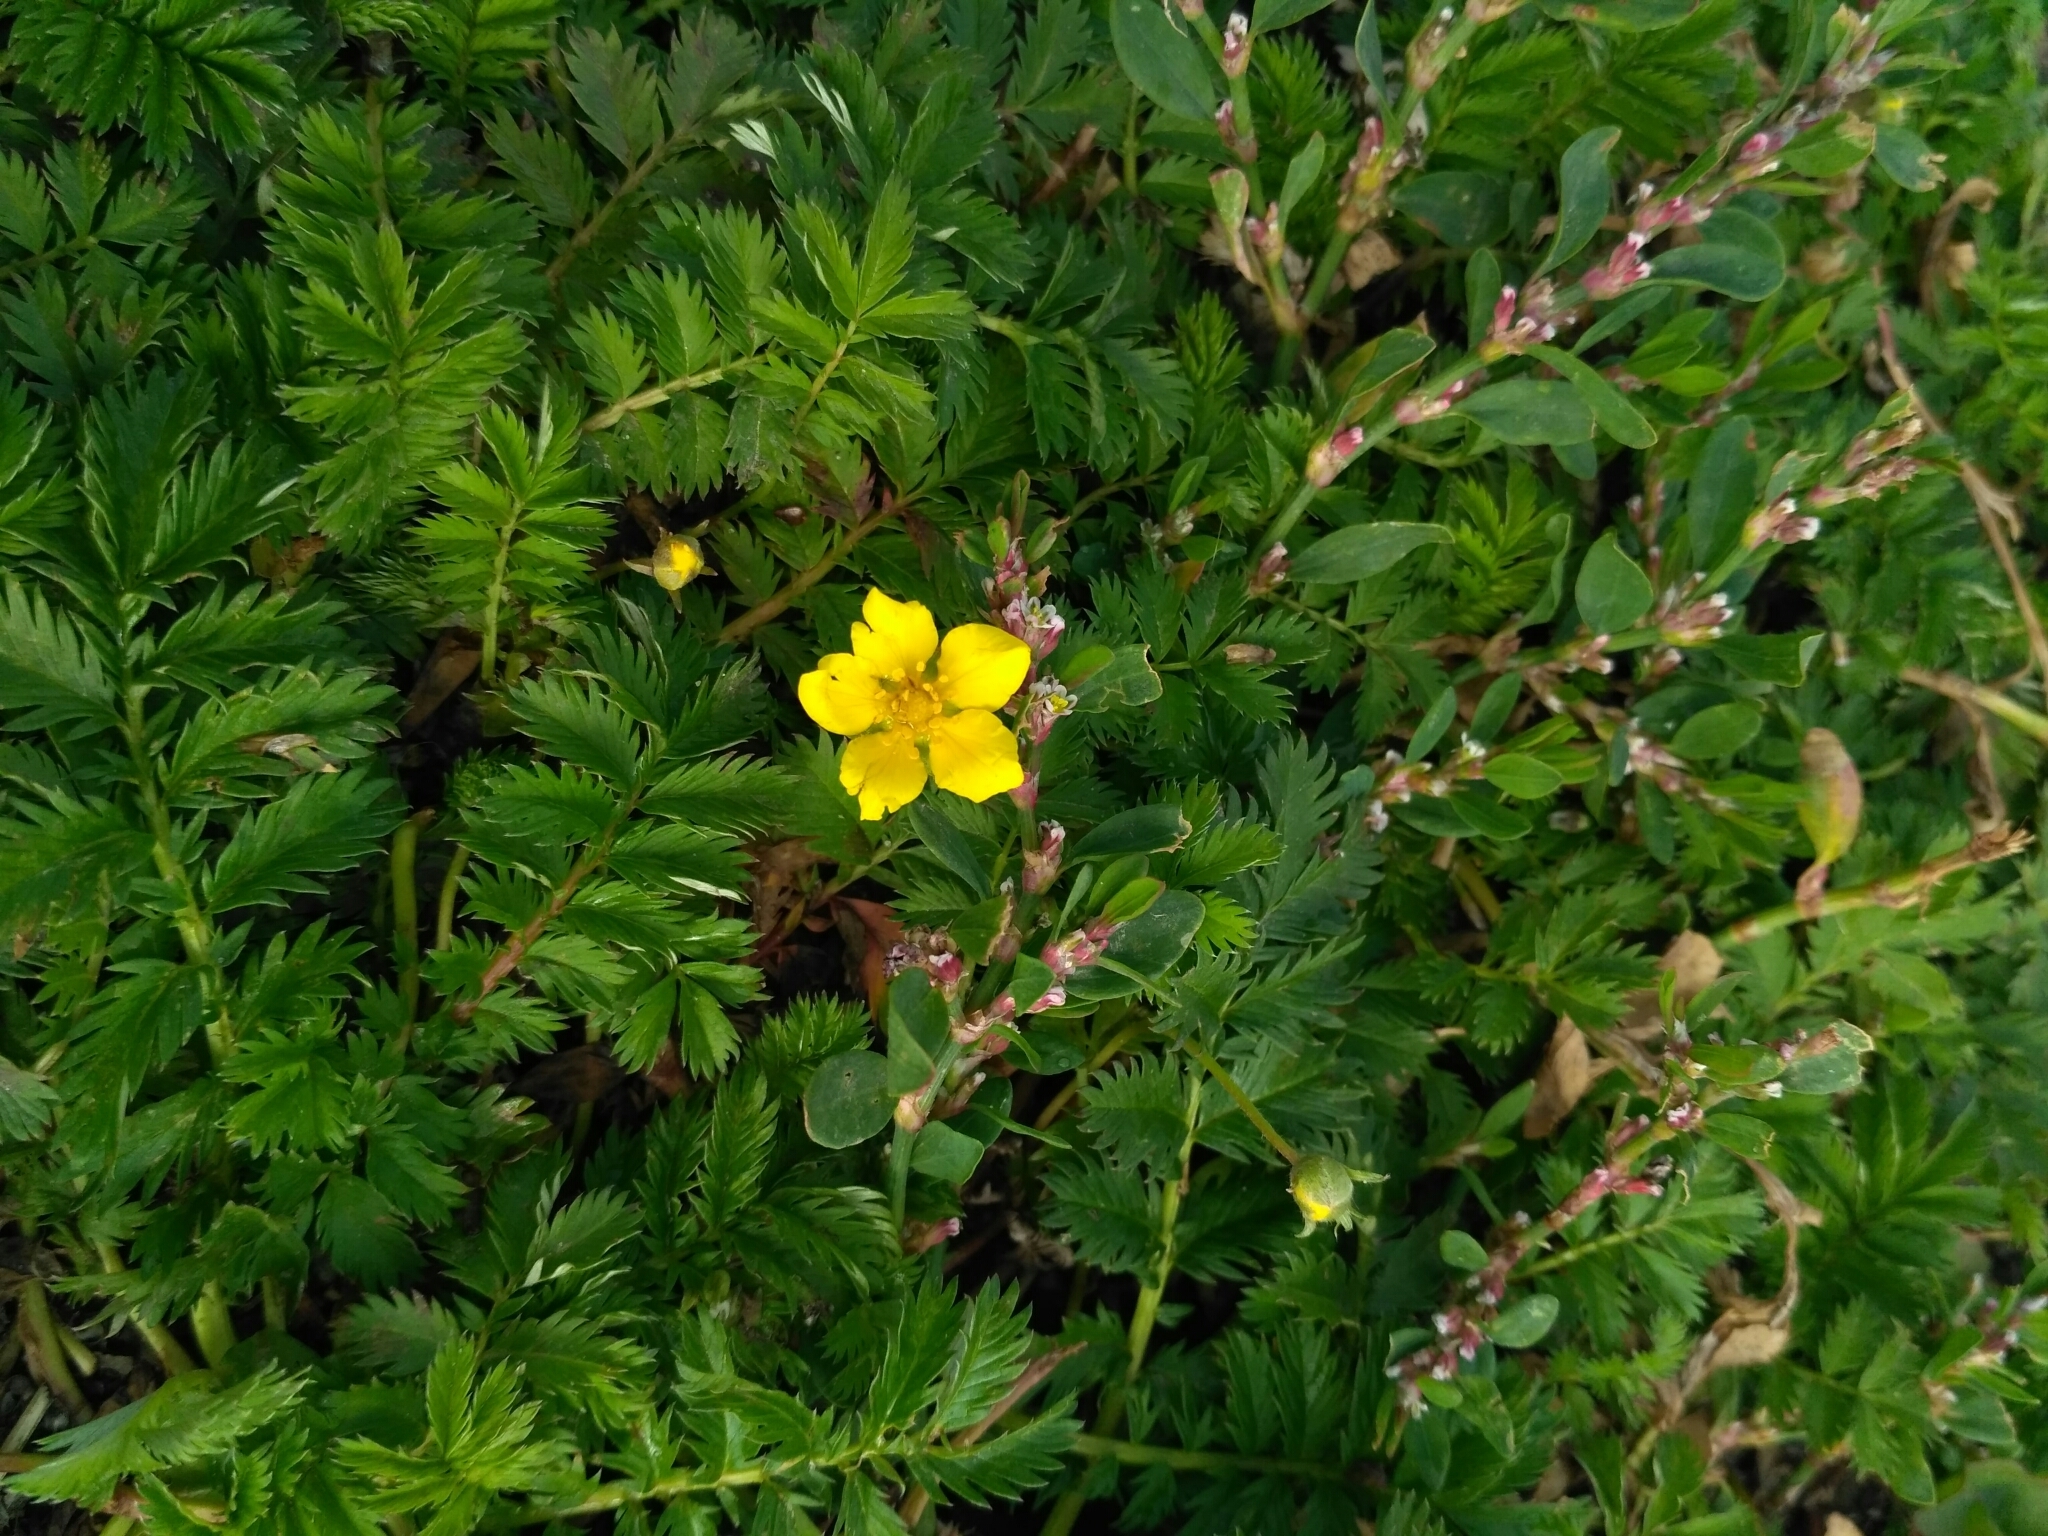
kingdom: Plantae
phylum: Tracheophyta
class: Magnoliopsida
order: Rosales
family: Rosaceae
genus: Argentina
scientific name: Argentina anserina
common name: Common silverweed
